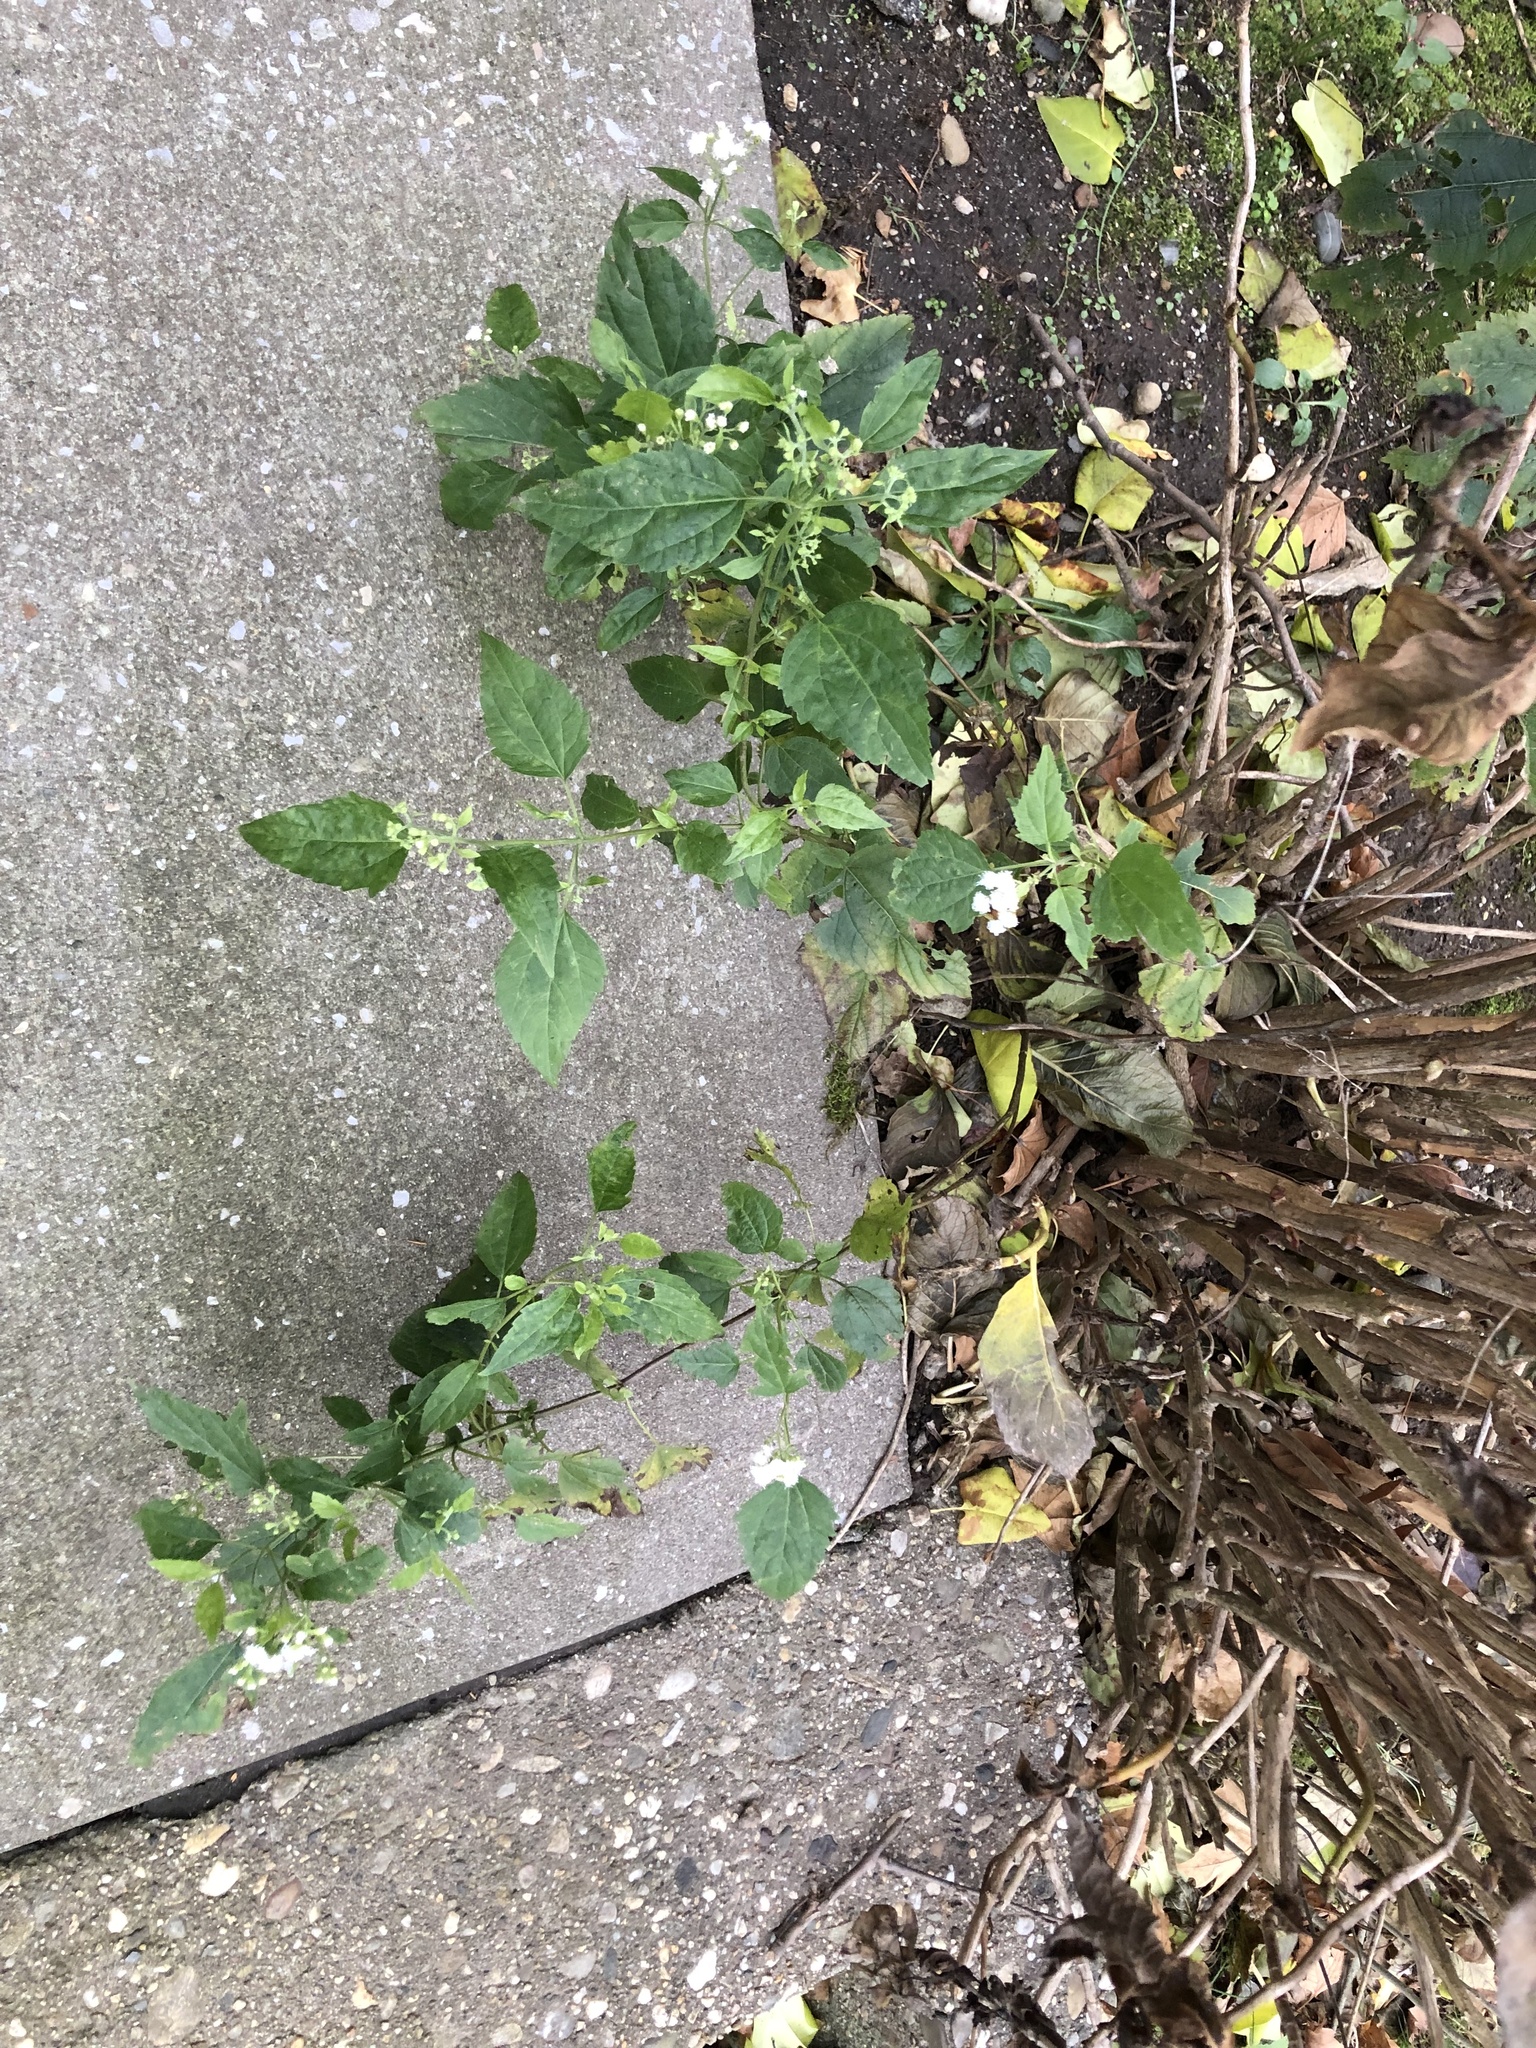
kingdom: Plantae
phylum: Tracheophyta
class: Magnoliopsida
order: Asterales
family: Asteraceae
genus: Ageratina
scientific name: Ageratina altissima
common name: White snakeroot
